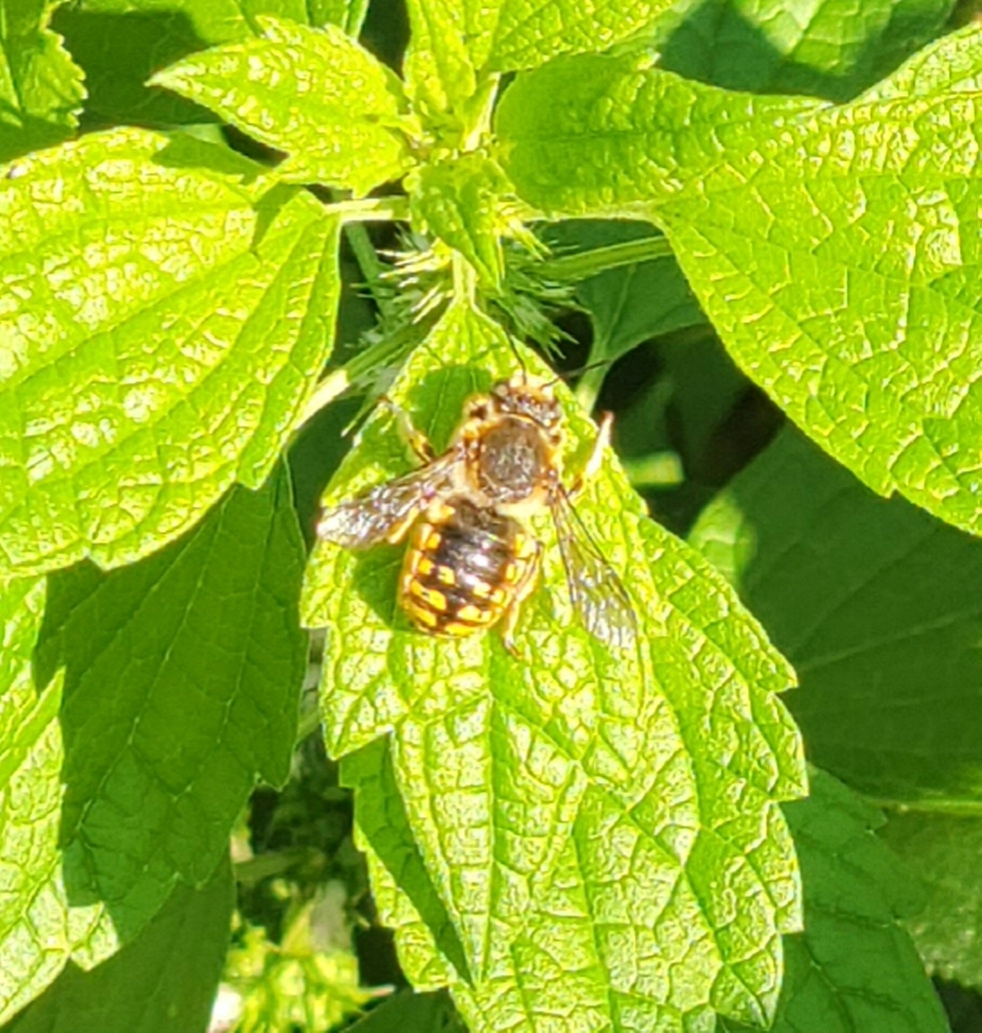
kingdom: Animalia
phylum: Arthropoda
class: Insecta
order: Hymenoptera
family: Megachilidae
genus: Anthidium
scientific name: Anthidium manicatum
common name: Wool carder bee
